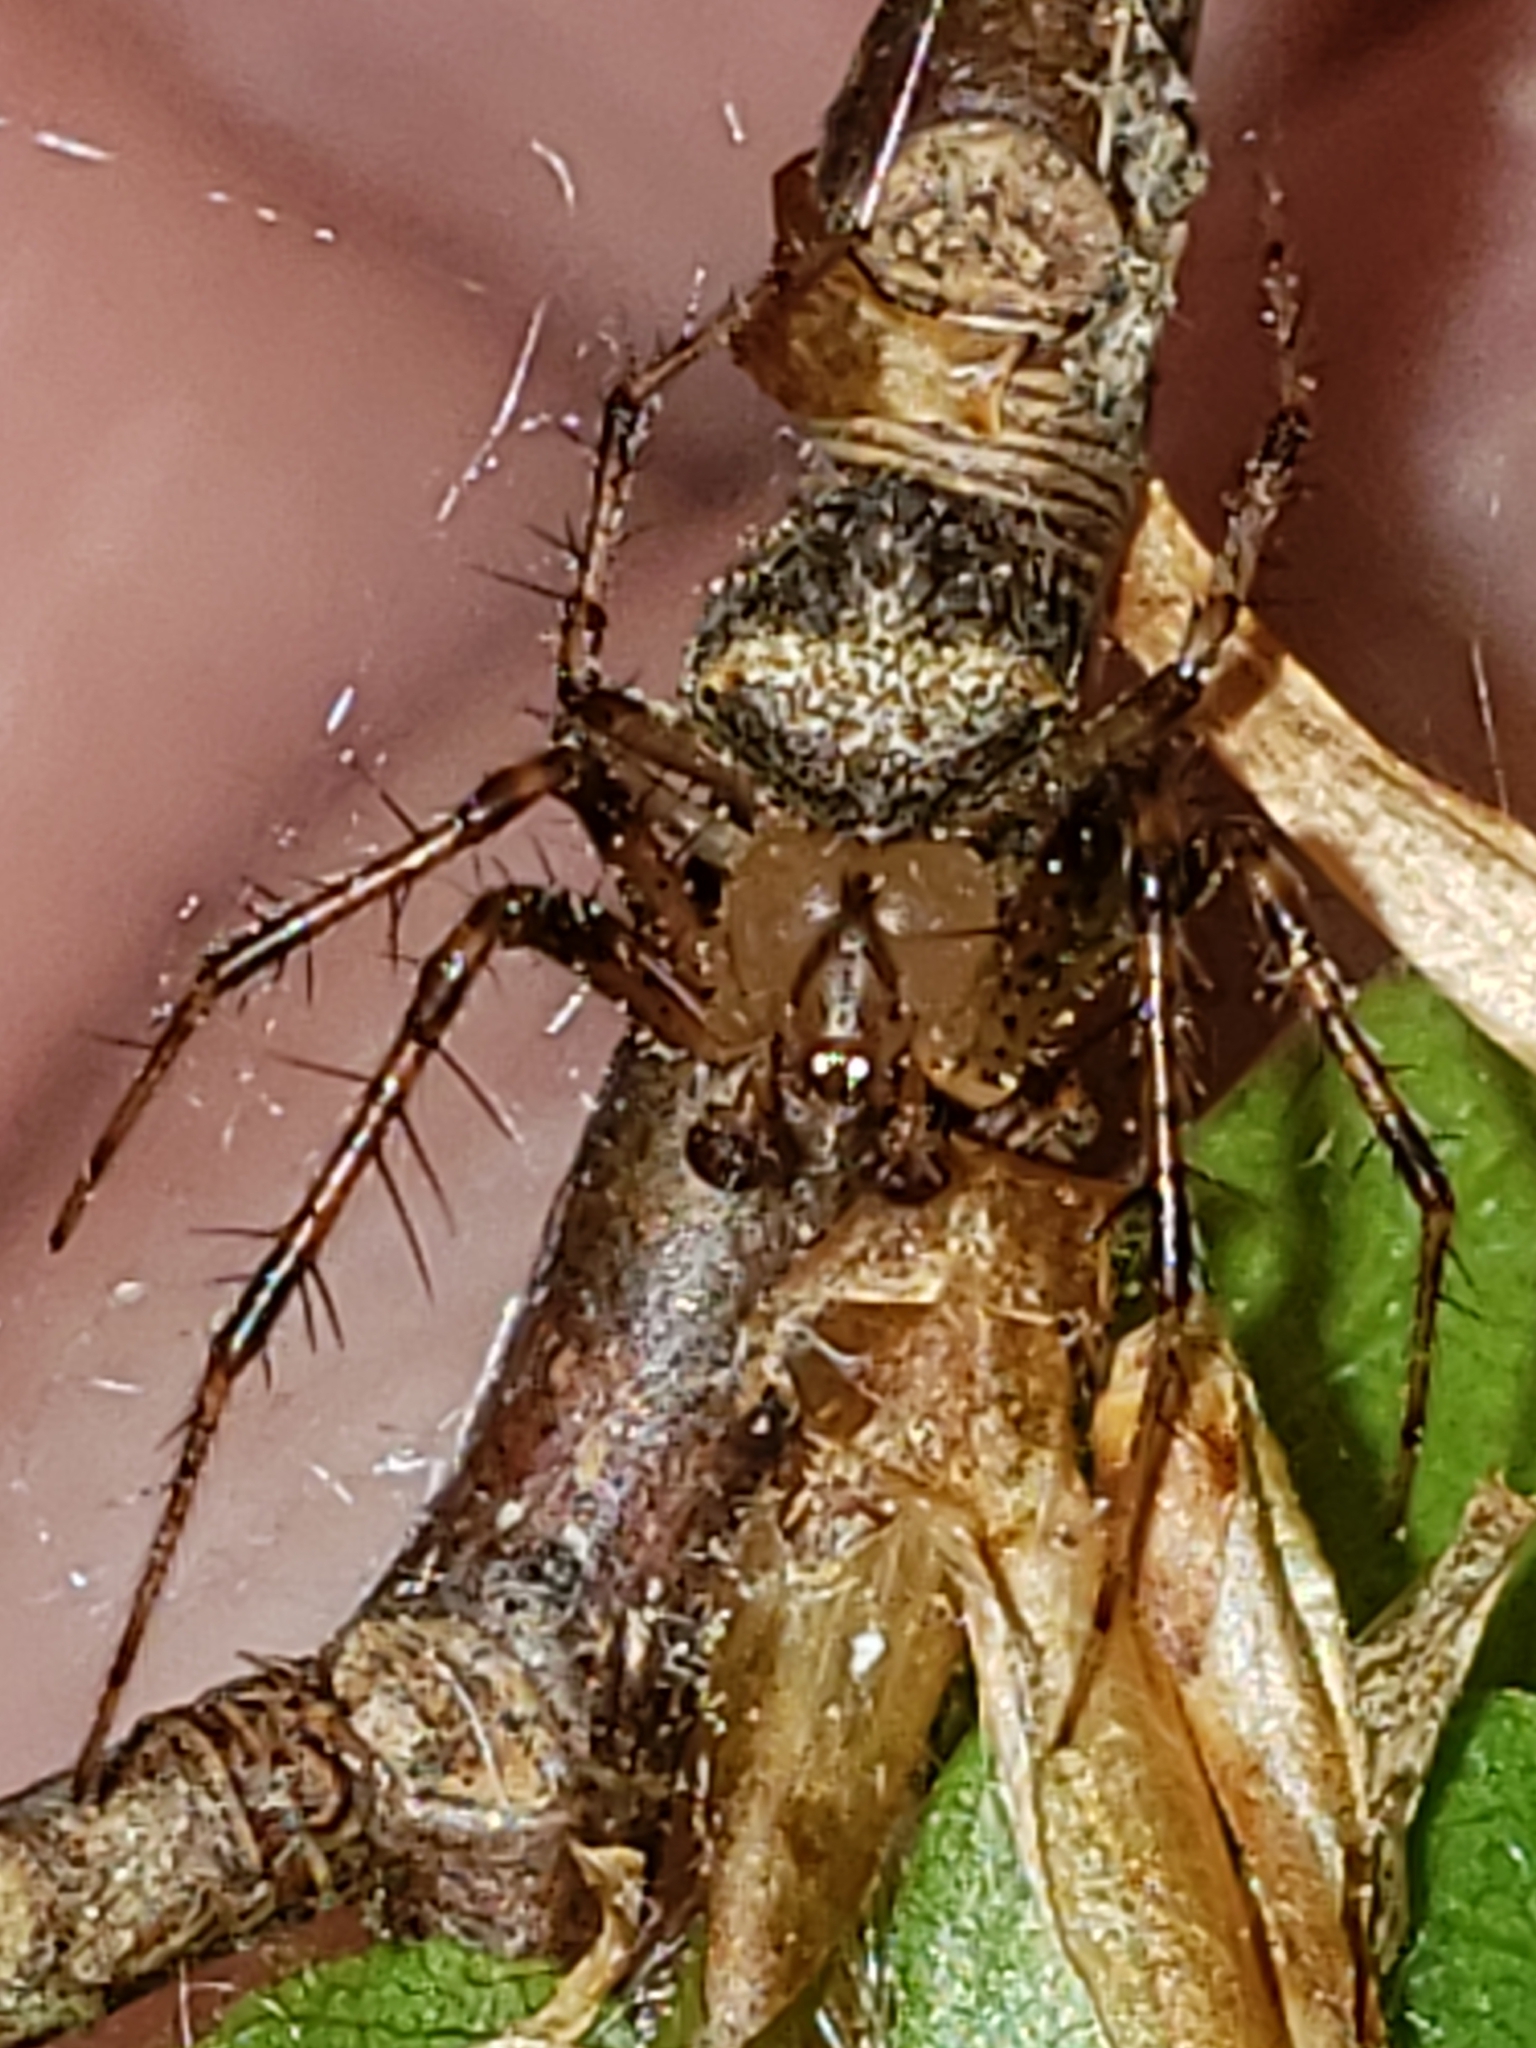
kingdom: Animalia
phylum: Arthropoda
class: Arachnida
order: Araneae
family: Araneidae
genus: Araneus
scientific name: Araneus miniatus
